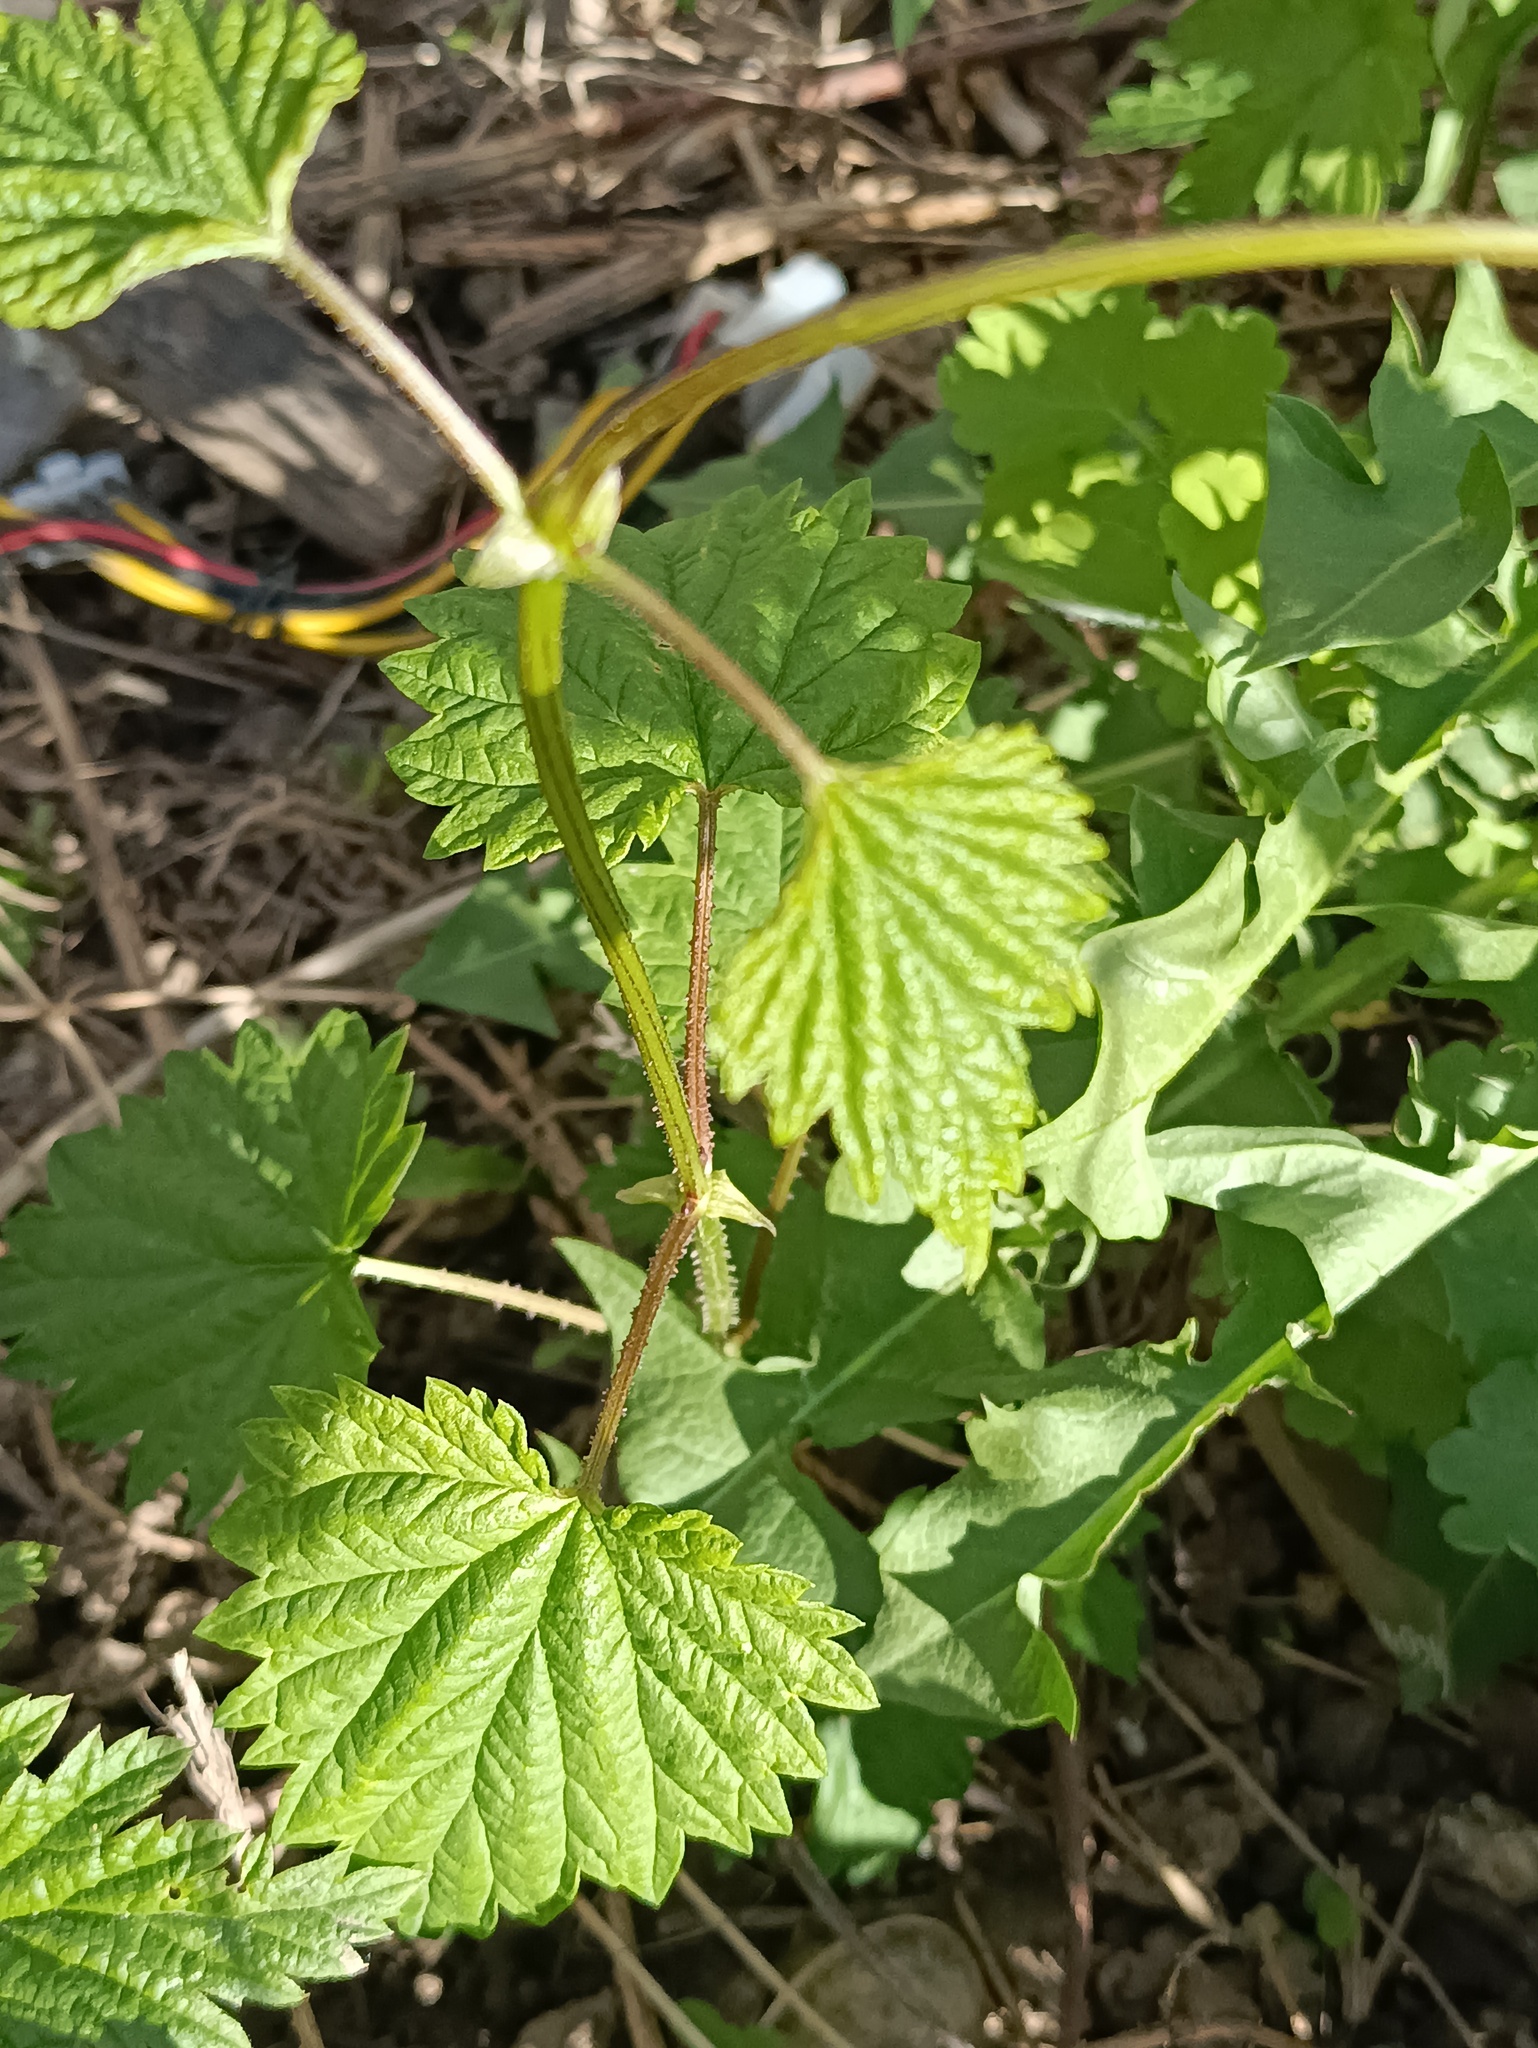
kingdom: Plantae
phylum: Tracheophyta
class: Magnoliopsida
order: Rosales
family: Cannabaceae
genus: Humulus
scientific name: Humulus lupulus
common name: Hop
